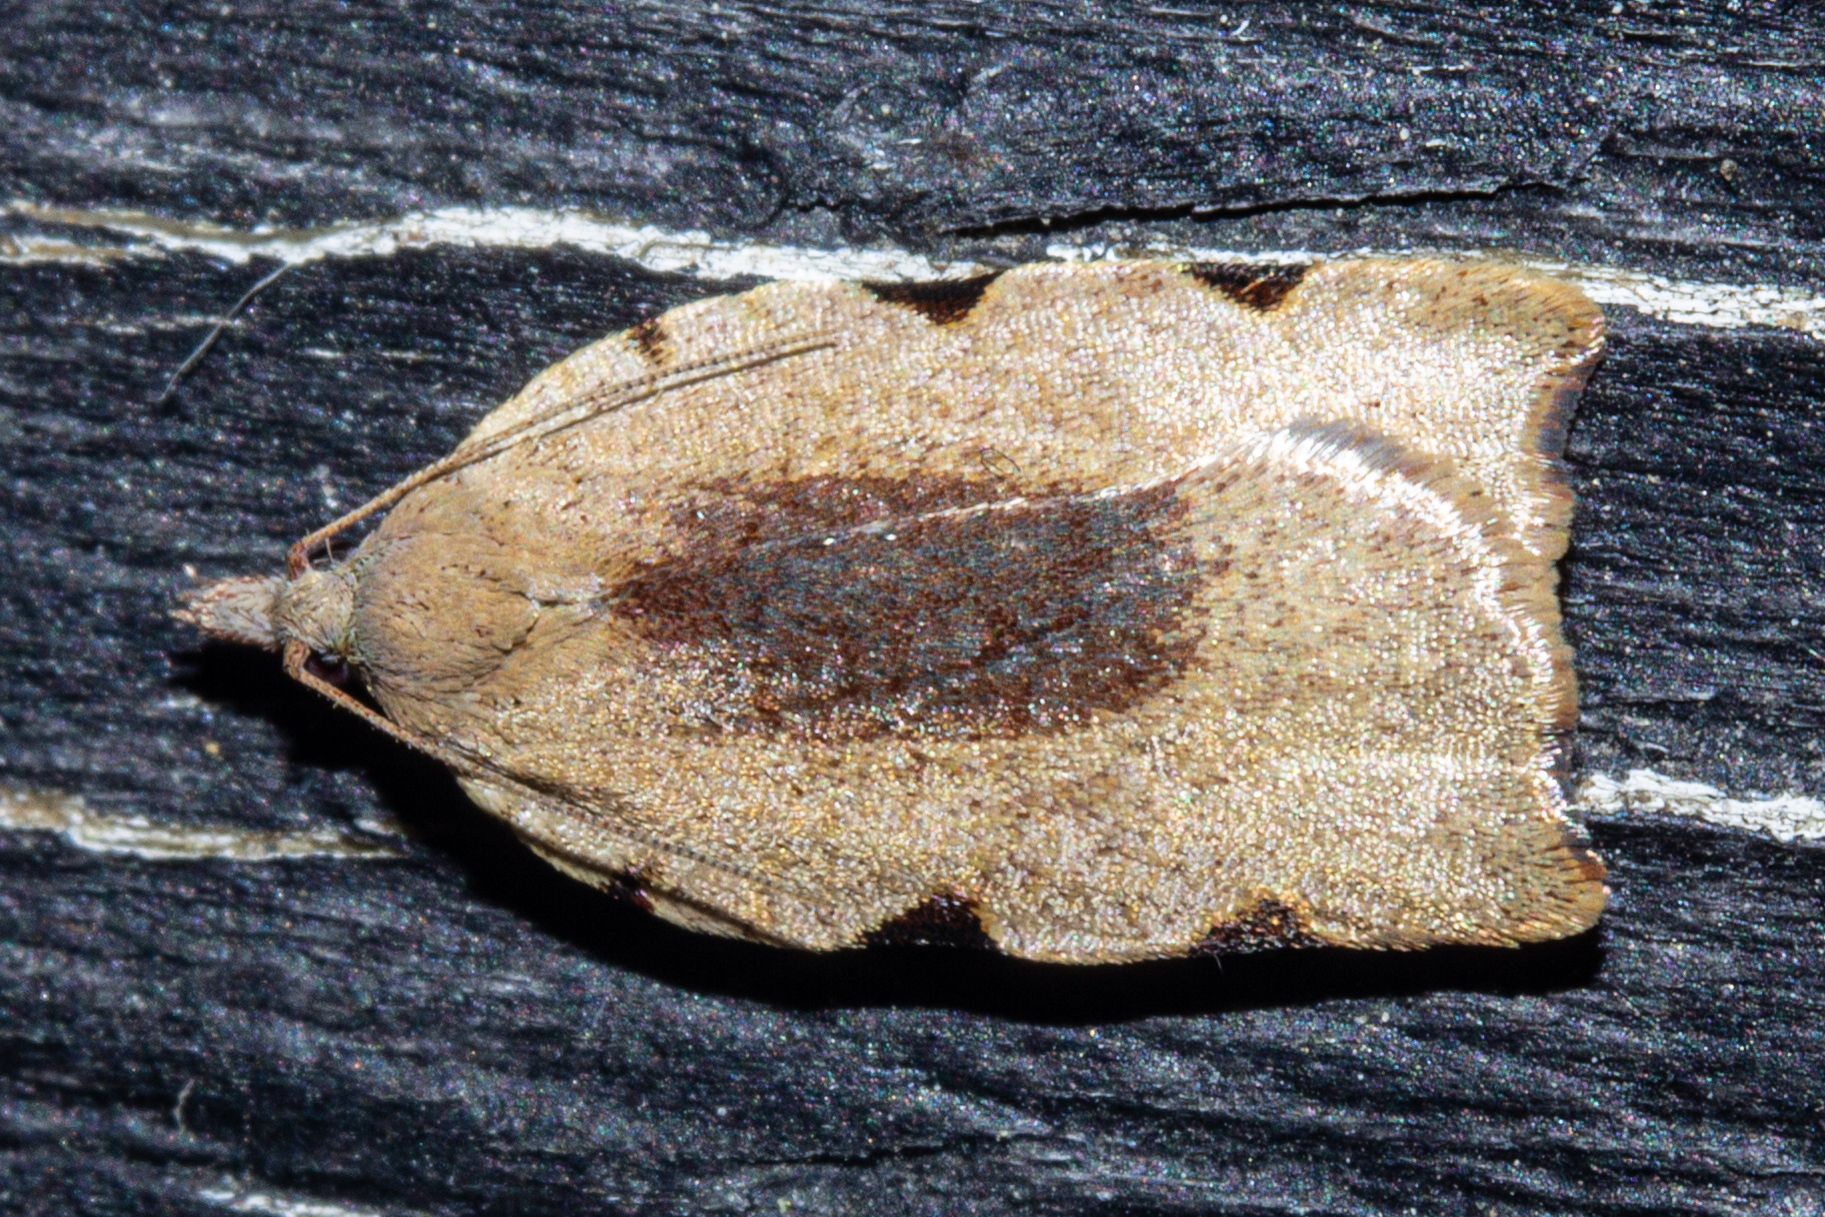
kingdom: Animalia
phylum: Arthropoda
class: Insecta
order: Lepidoptera
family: Tortricidae
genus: Apoctena
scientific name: Apoctena flavescens
